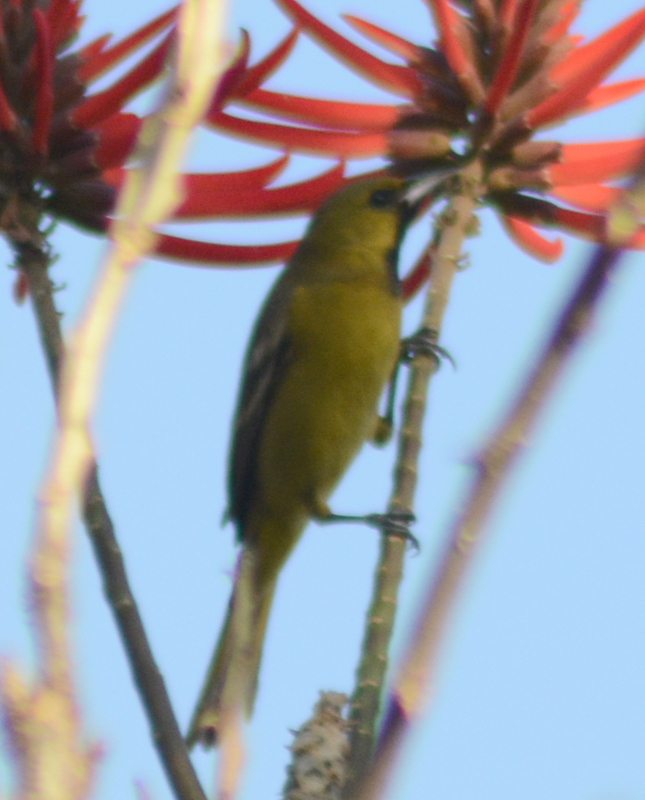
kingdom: Animalia
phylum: Chordata
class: Aves
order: Passeriformes
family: Icteridae
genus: Icterus
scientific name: Icterus spurius
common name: Orchard oriole
